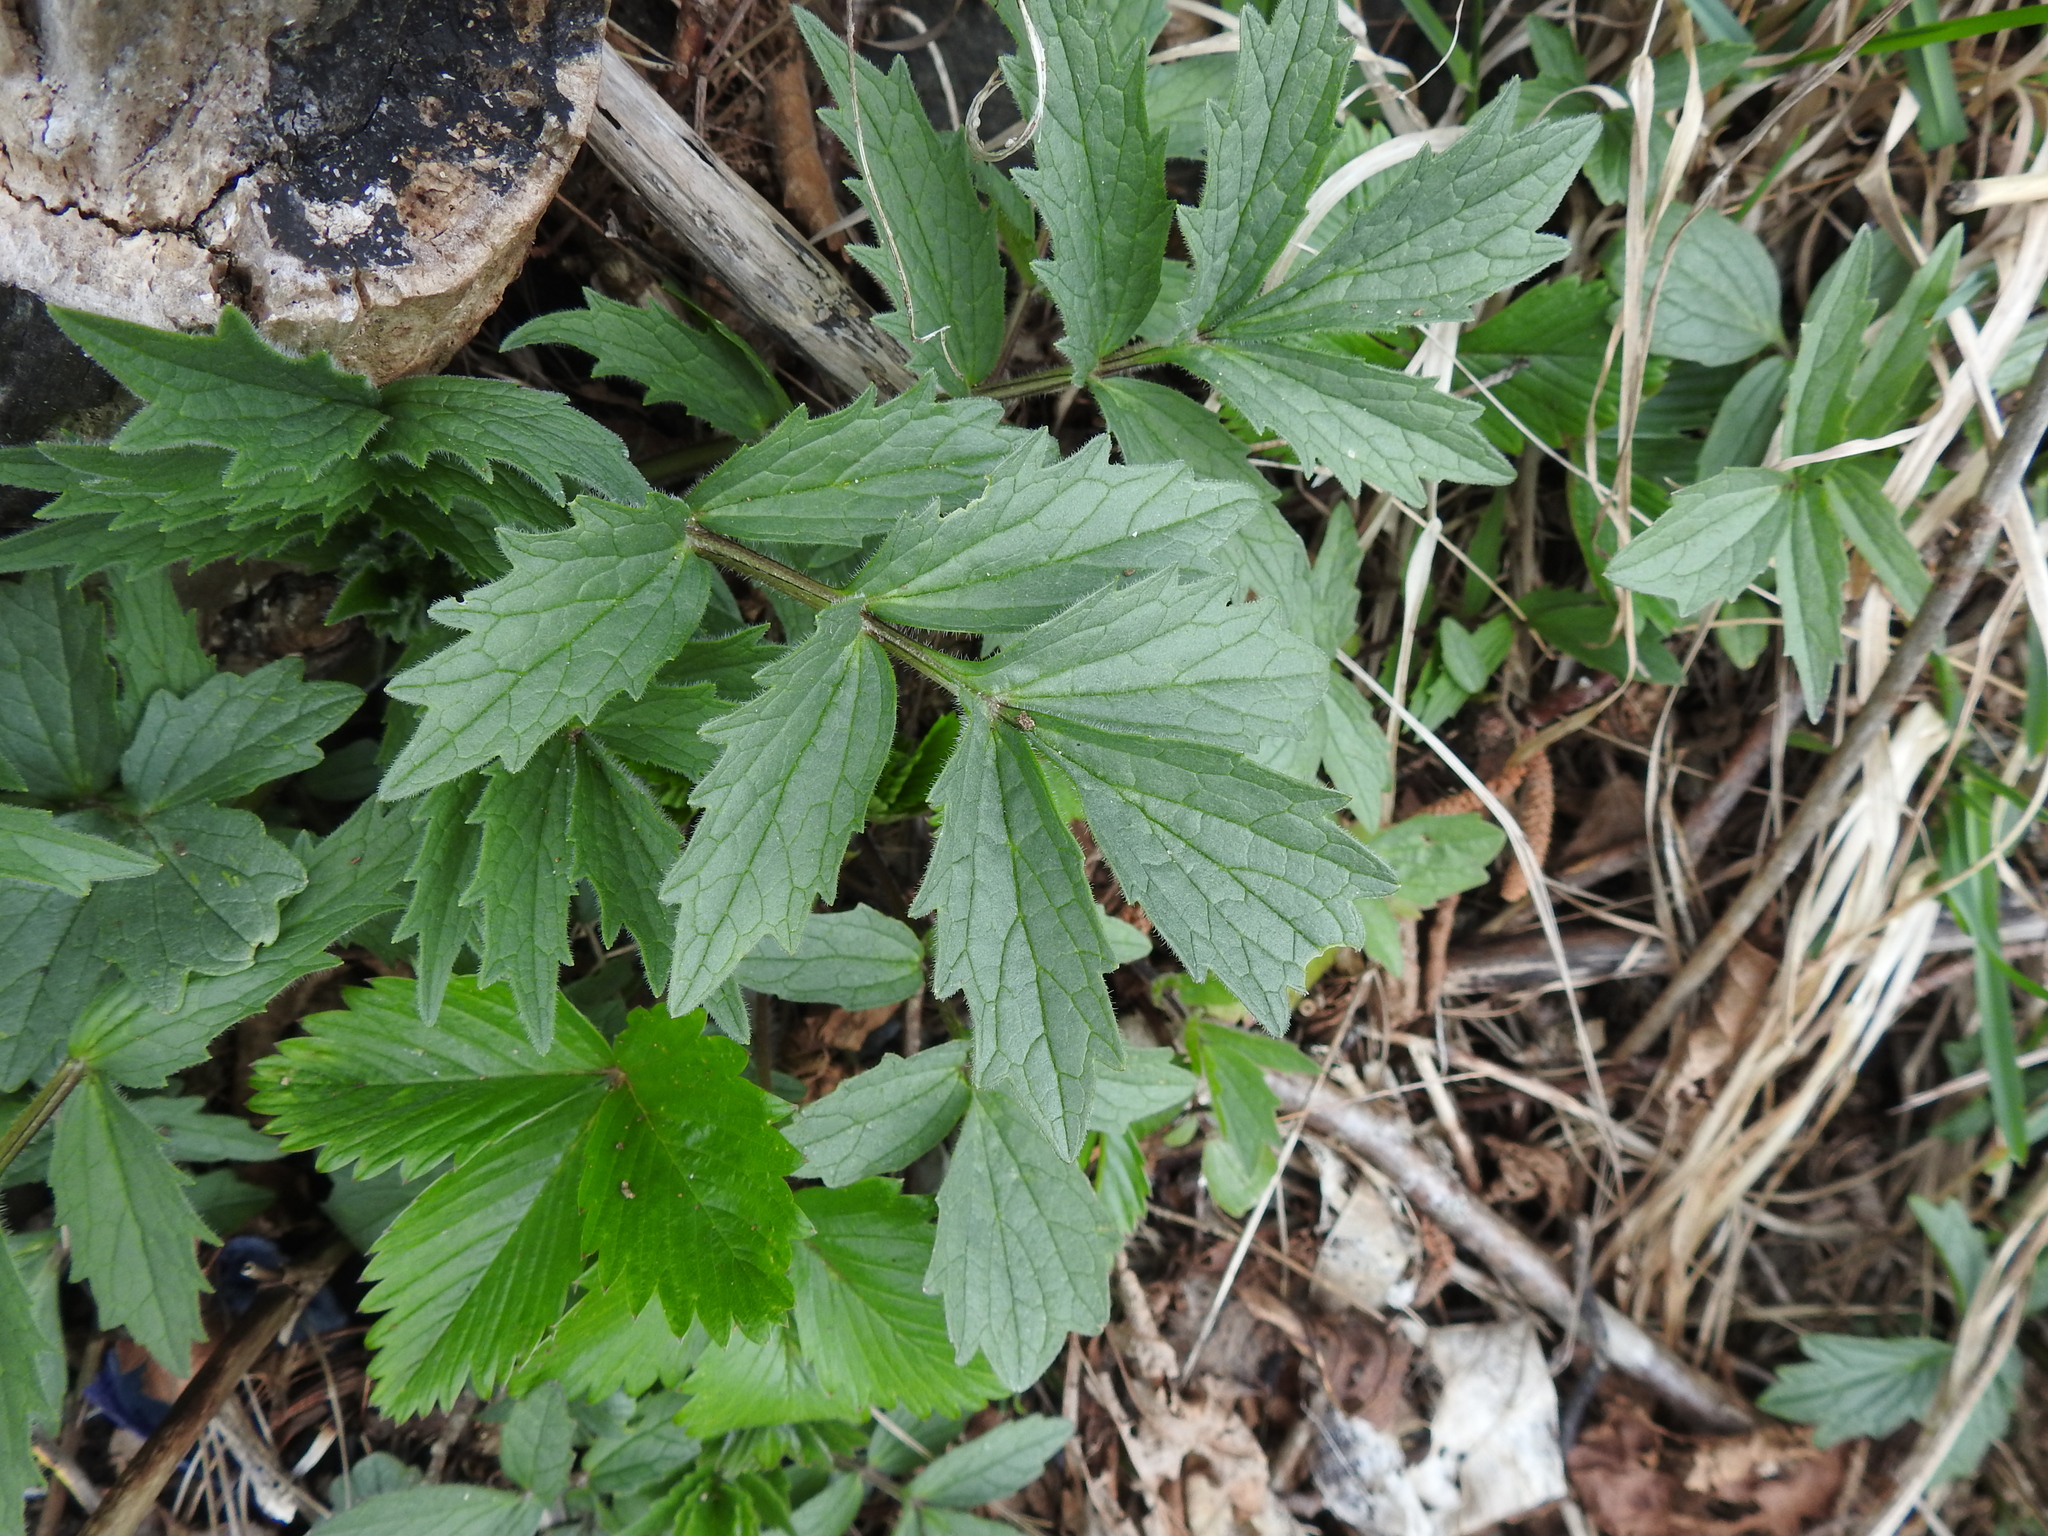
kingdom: Plantae
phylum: Tracheophyta
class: Magnoliopsida
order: Dipsacales
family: Caprifoliaceae
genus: Valeriana
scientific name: Valeriana excelsa
